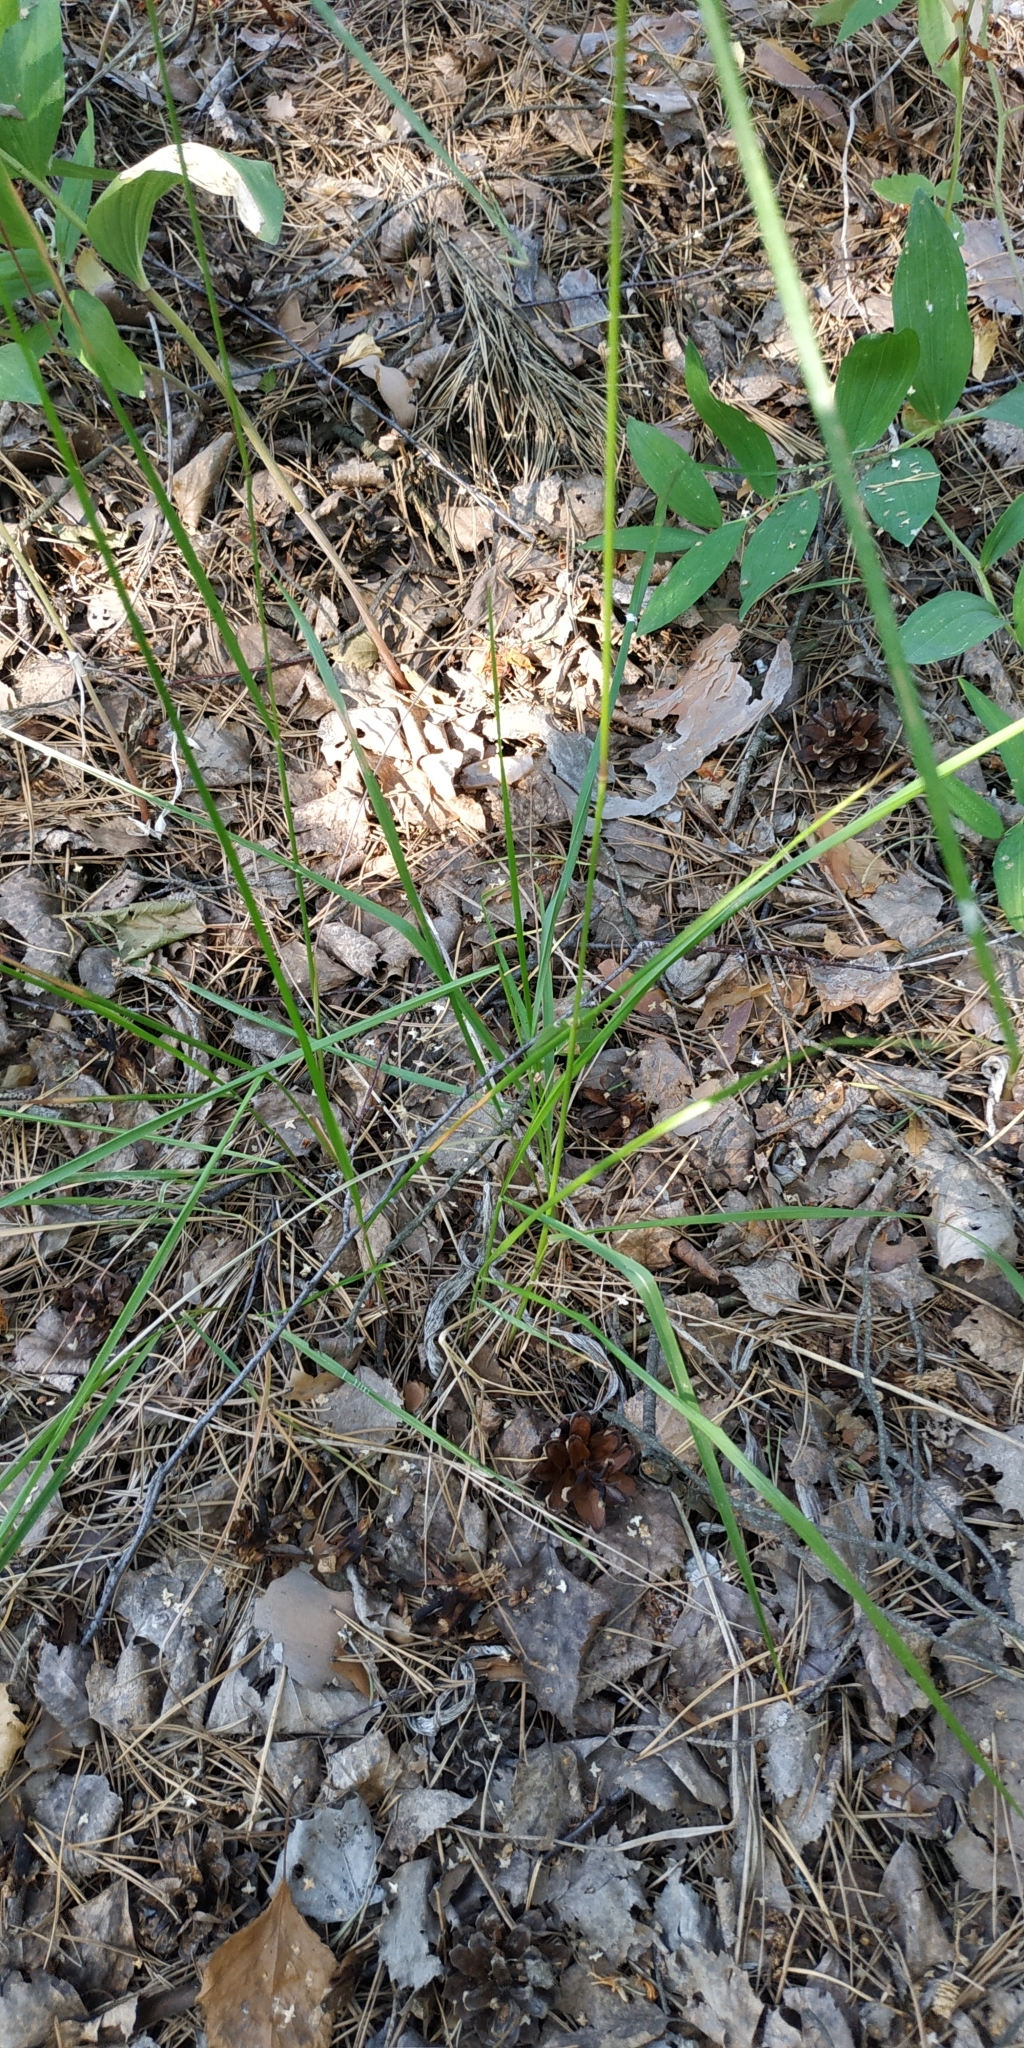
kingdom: Plantae
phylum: Tracheophyta
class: Liliopsida
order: Poales
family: Poaceae
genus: Calamagrostis
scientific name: Calamagrostis arundinacea
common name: Metskastik
